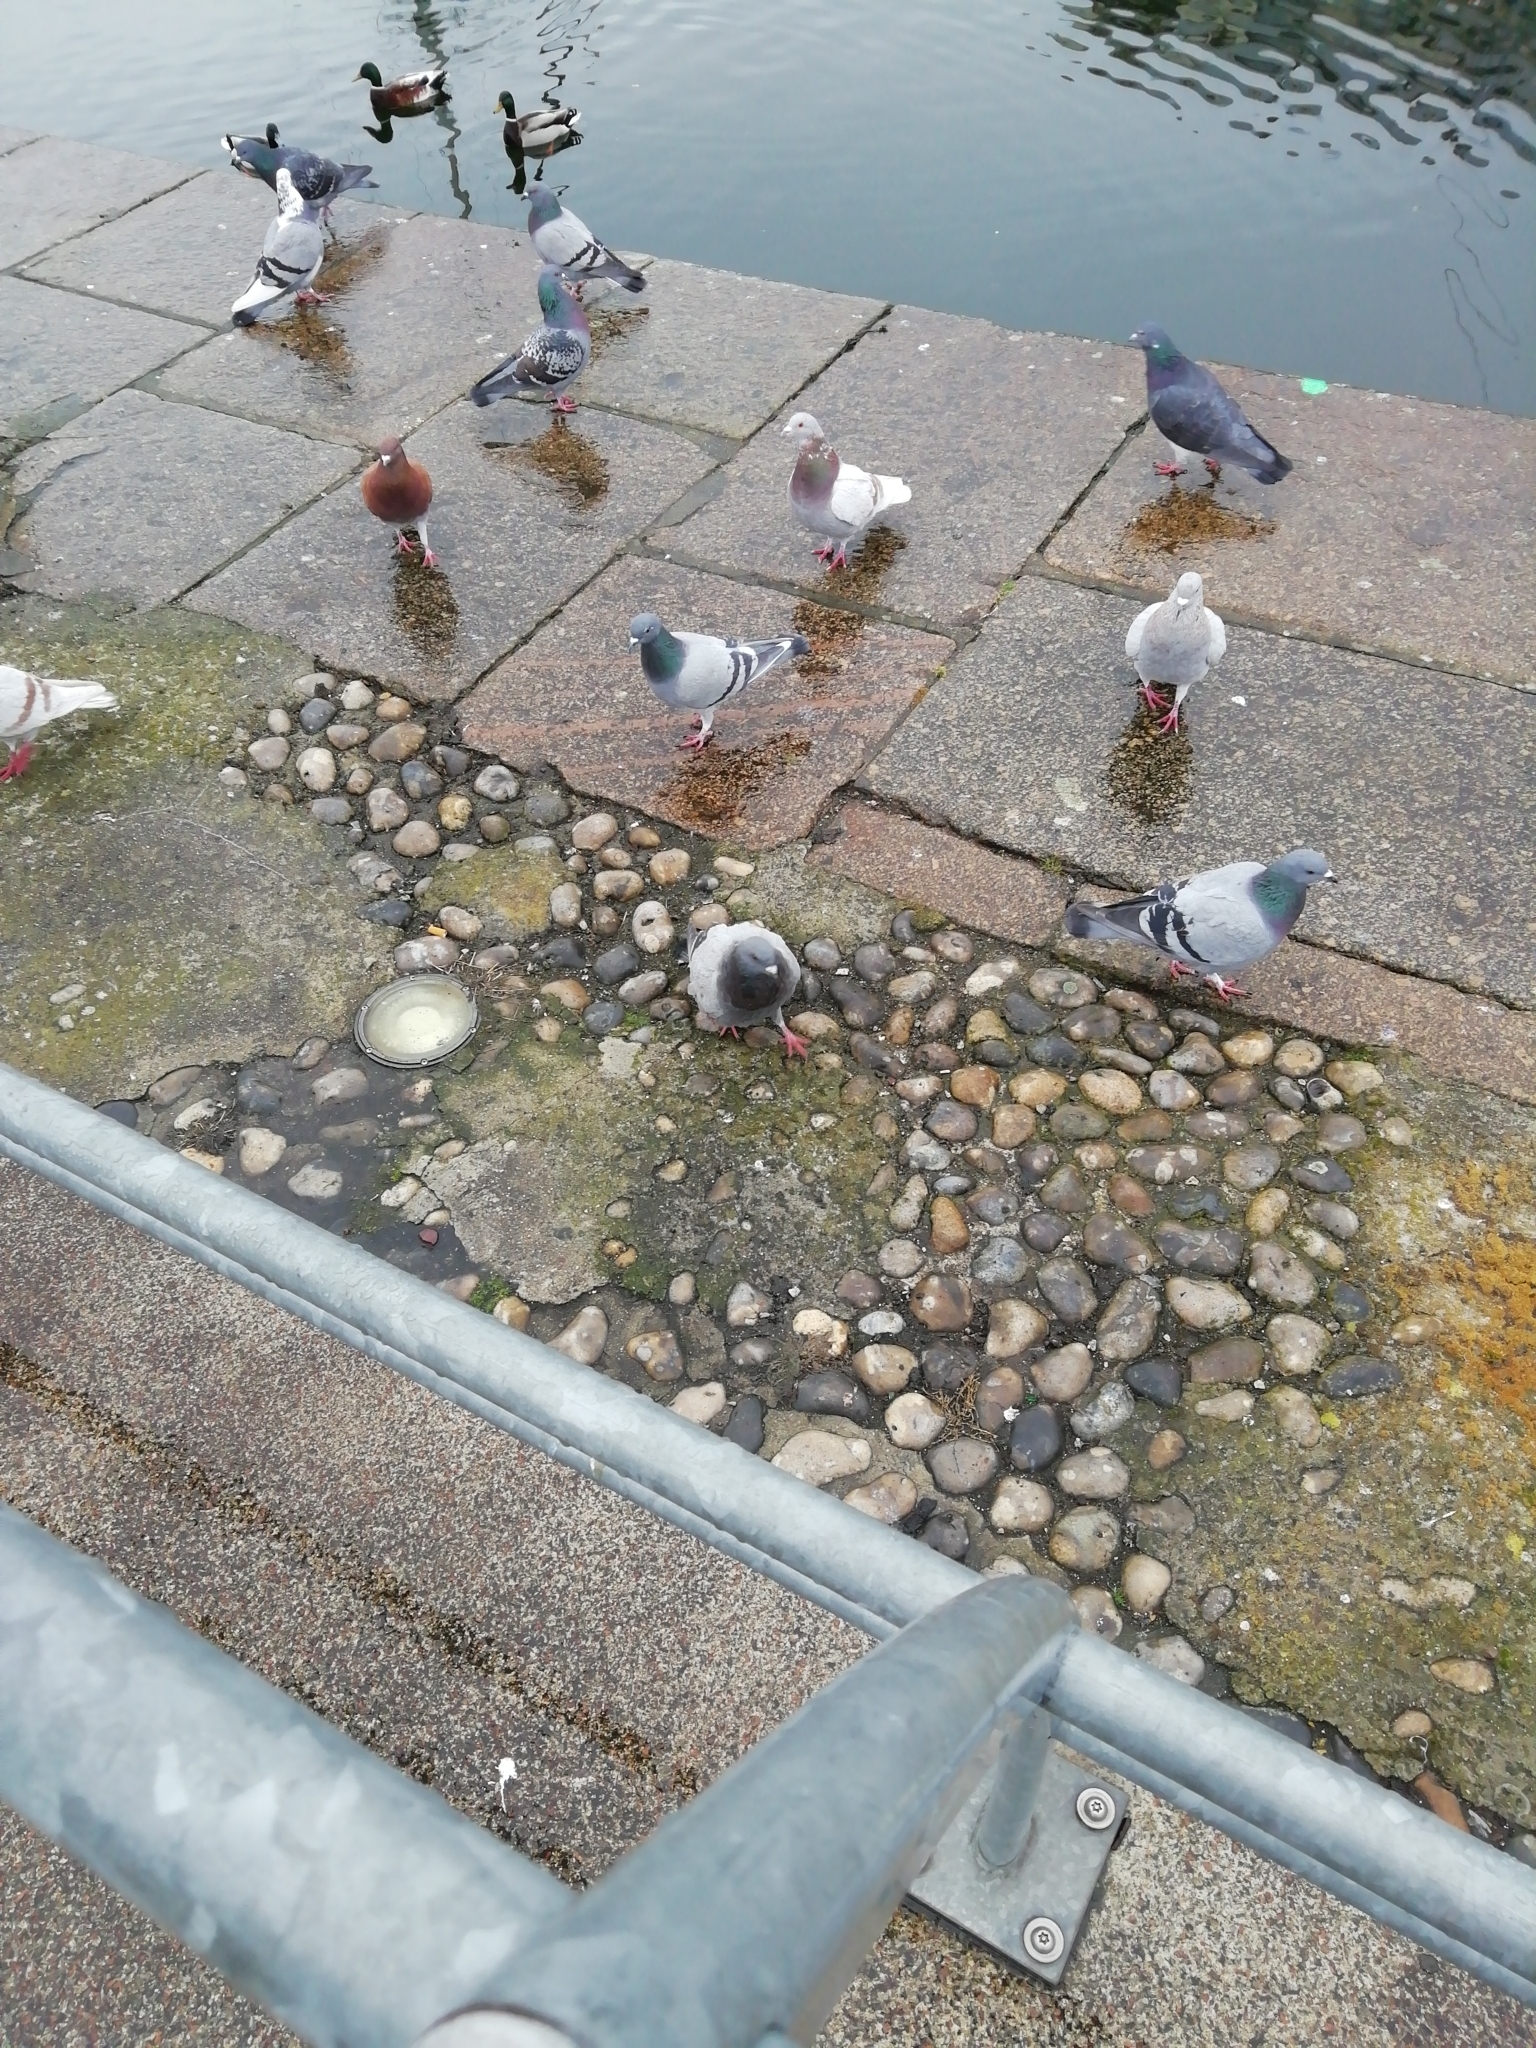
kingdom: Animalia
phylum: Chordata
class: Aves
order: Columbiformes
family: Columbidae
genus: Columba
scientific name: Columba livia
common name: Rock pigeon
